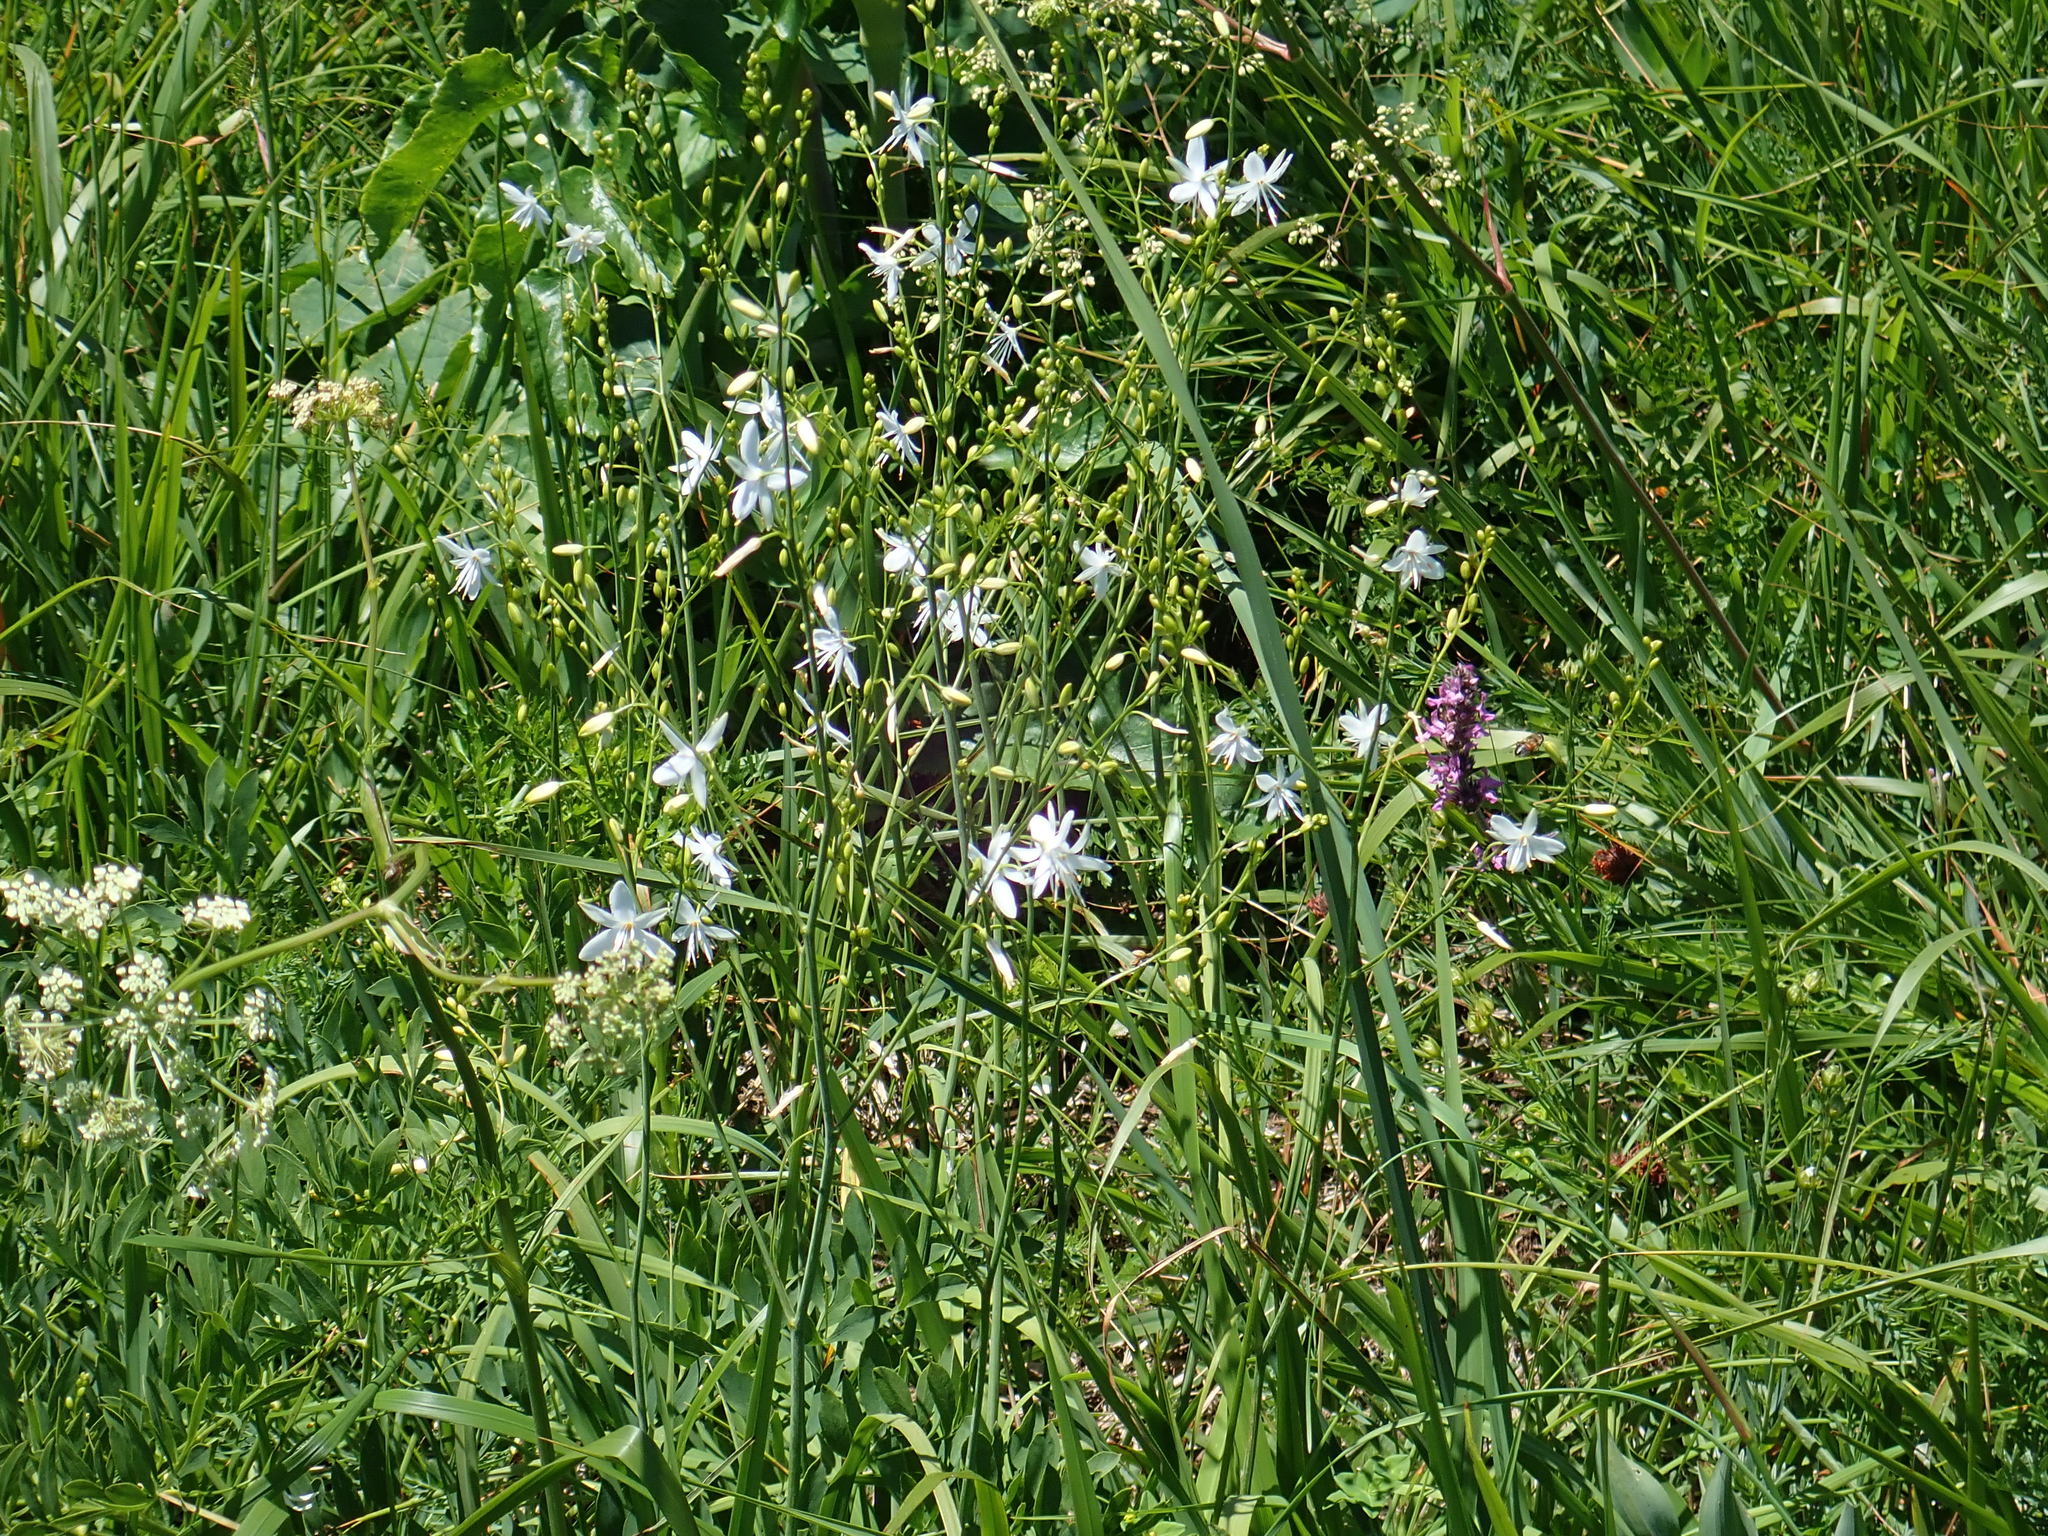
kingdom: Plantae
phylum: Tracheophyta
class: Liliopsida
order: Asparagales
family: Asparagaceae
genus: Anthericum
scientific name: Anthericum ramosum
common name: Branched st. bernard's-lily
